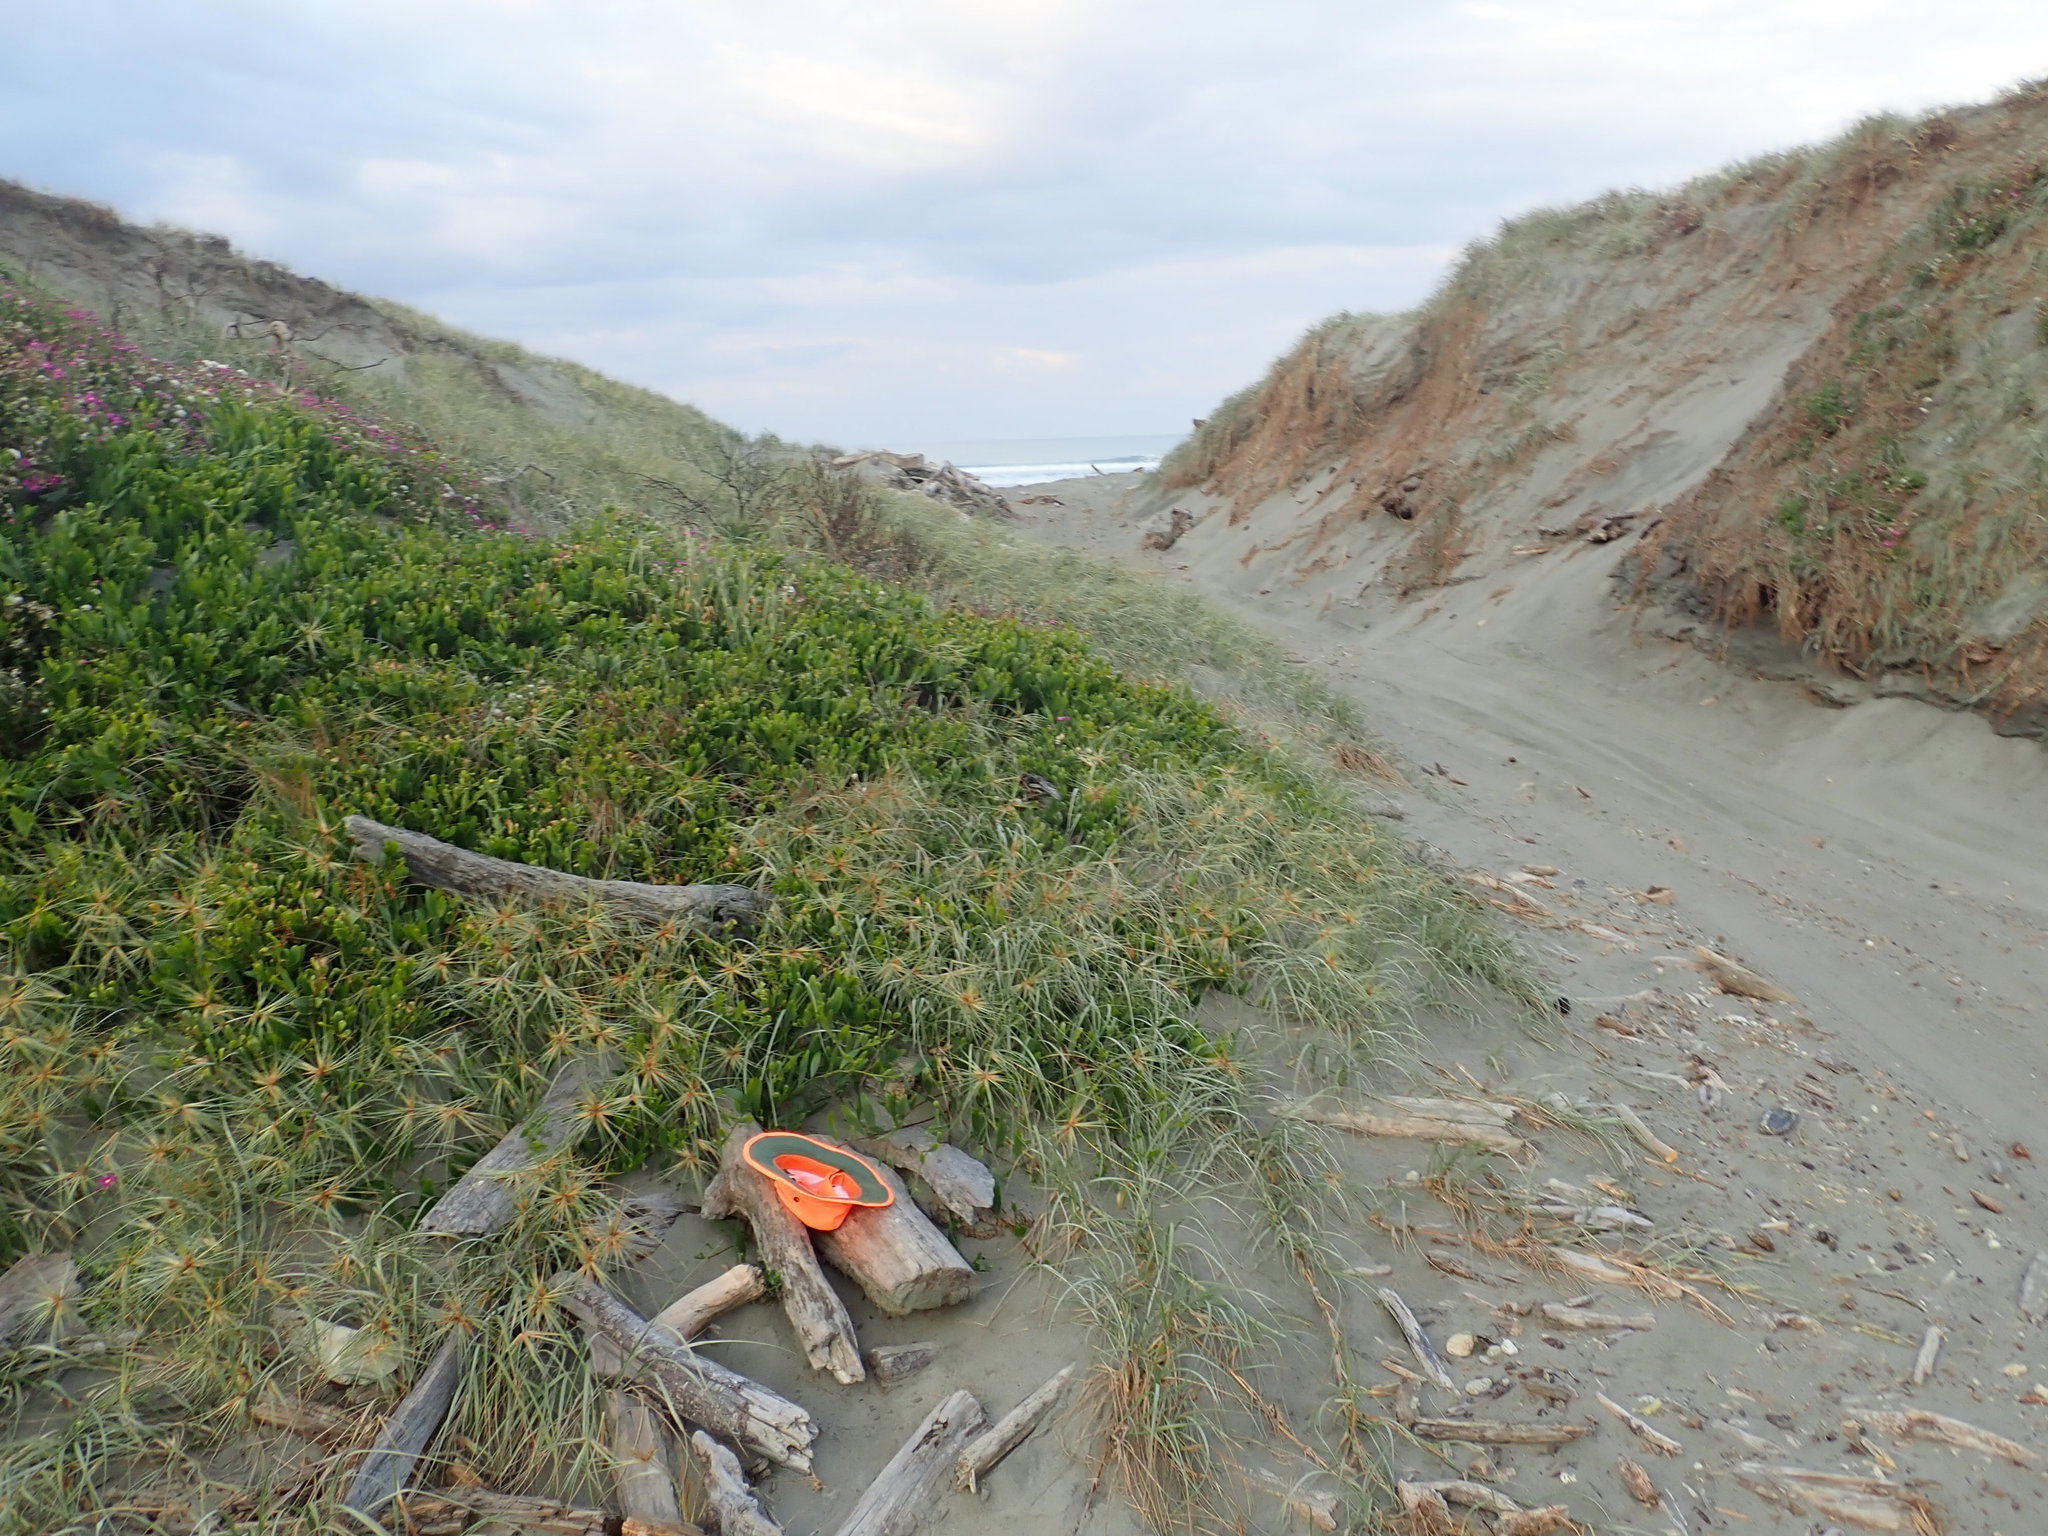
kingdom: Animalia
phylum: Arthropoda
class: Malacostraca
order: Isopoda
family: Porcellionidae
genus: Porcellio
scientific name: Porcellio scaber
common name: Common rough woodlouse
